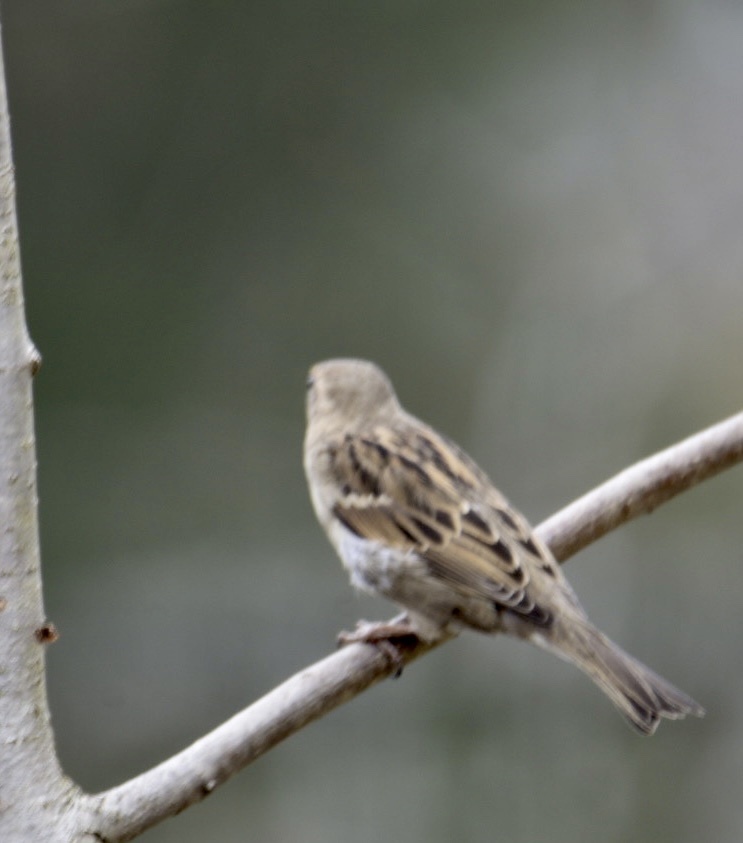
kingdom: Animalia
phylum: Chordata
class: Aves
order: Passeriformes
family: Passeridae
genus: Passer
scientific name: Passer domesticus
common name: House sparrow
